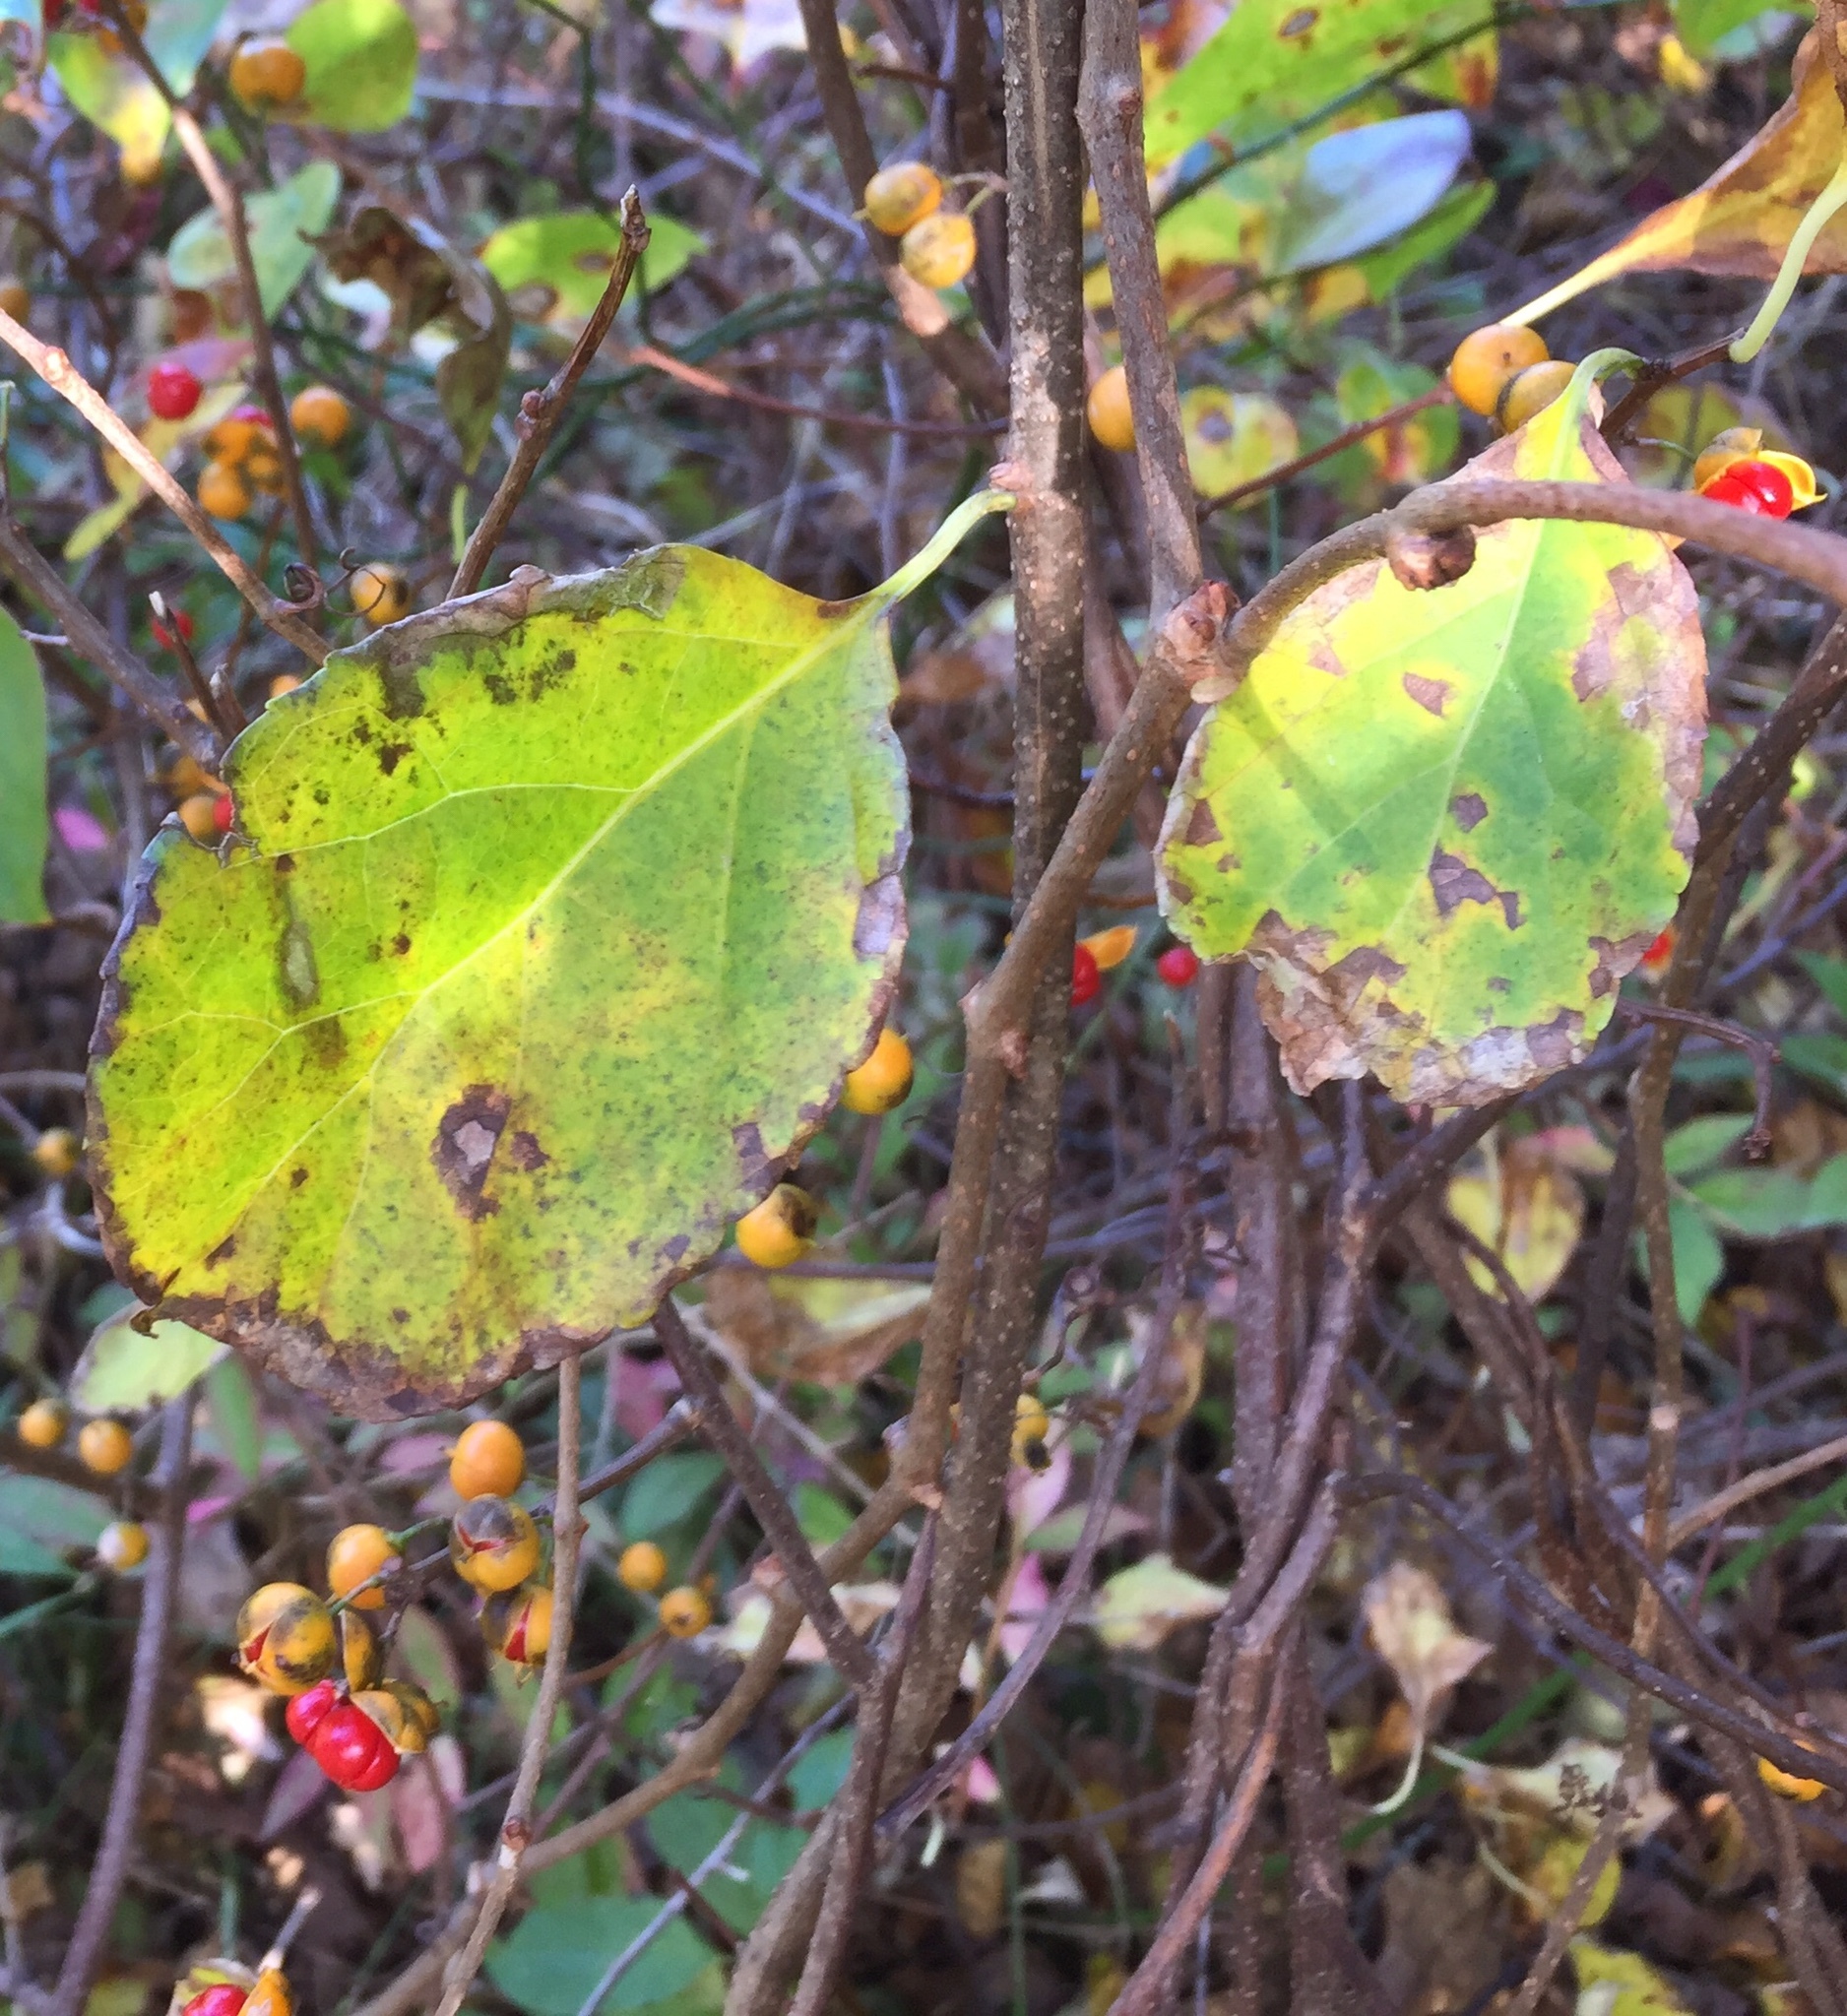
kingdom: Plantae
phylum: Tracheophyta
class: Magnoliopsida
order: Celastrales
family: Celastraceae
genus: Celastrus
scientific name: Celastrus orbiculatus
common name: Oriental bittersweet
